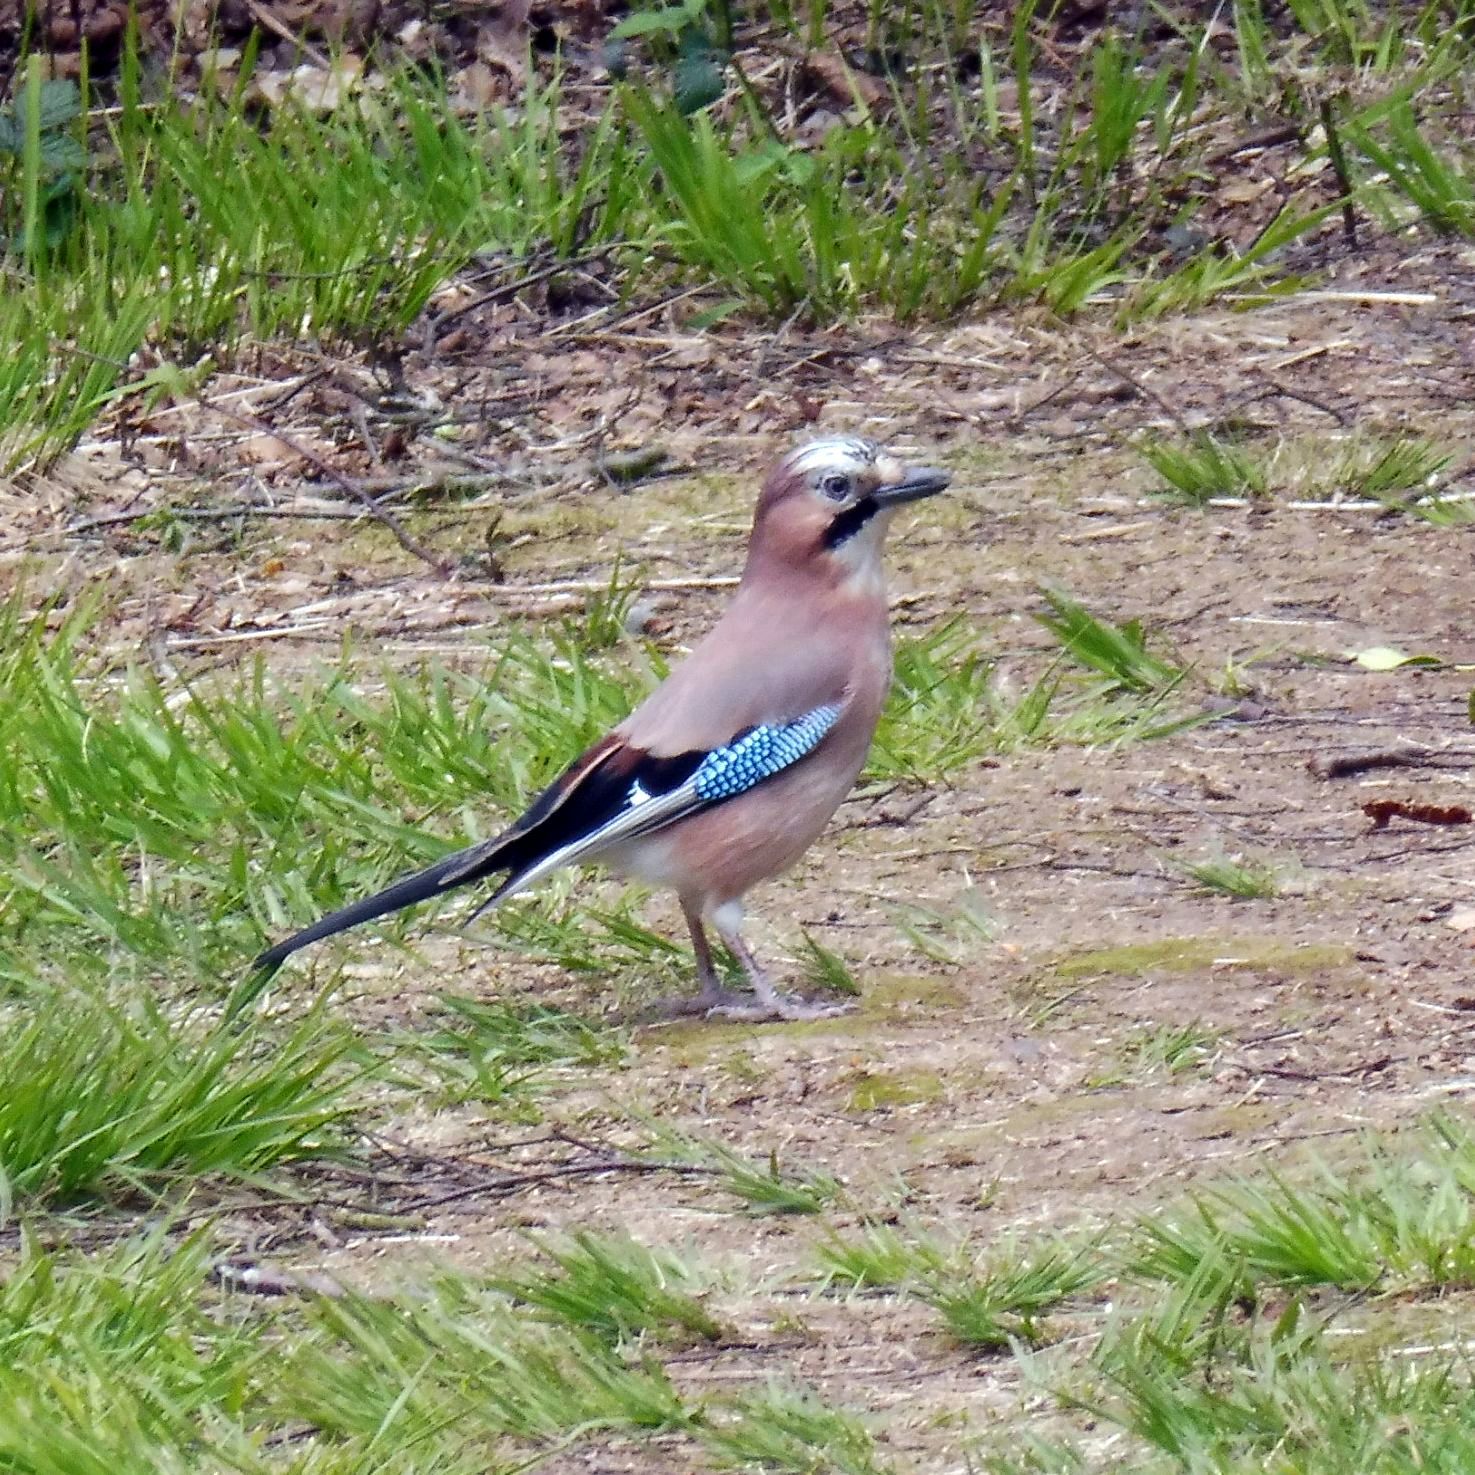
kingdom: Animalia
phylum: Chordata
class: Aves
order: Passeriformes
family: Corvidae
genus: Garrulus
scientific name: Garrulus glandarius
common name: Eurasian jay
